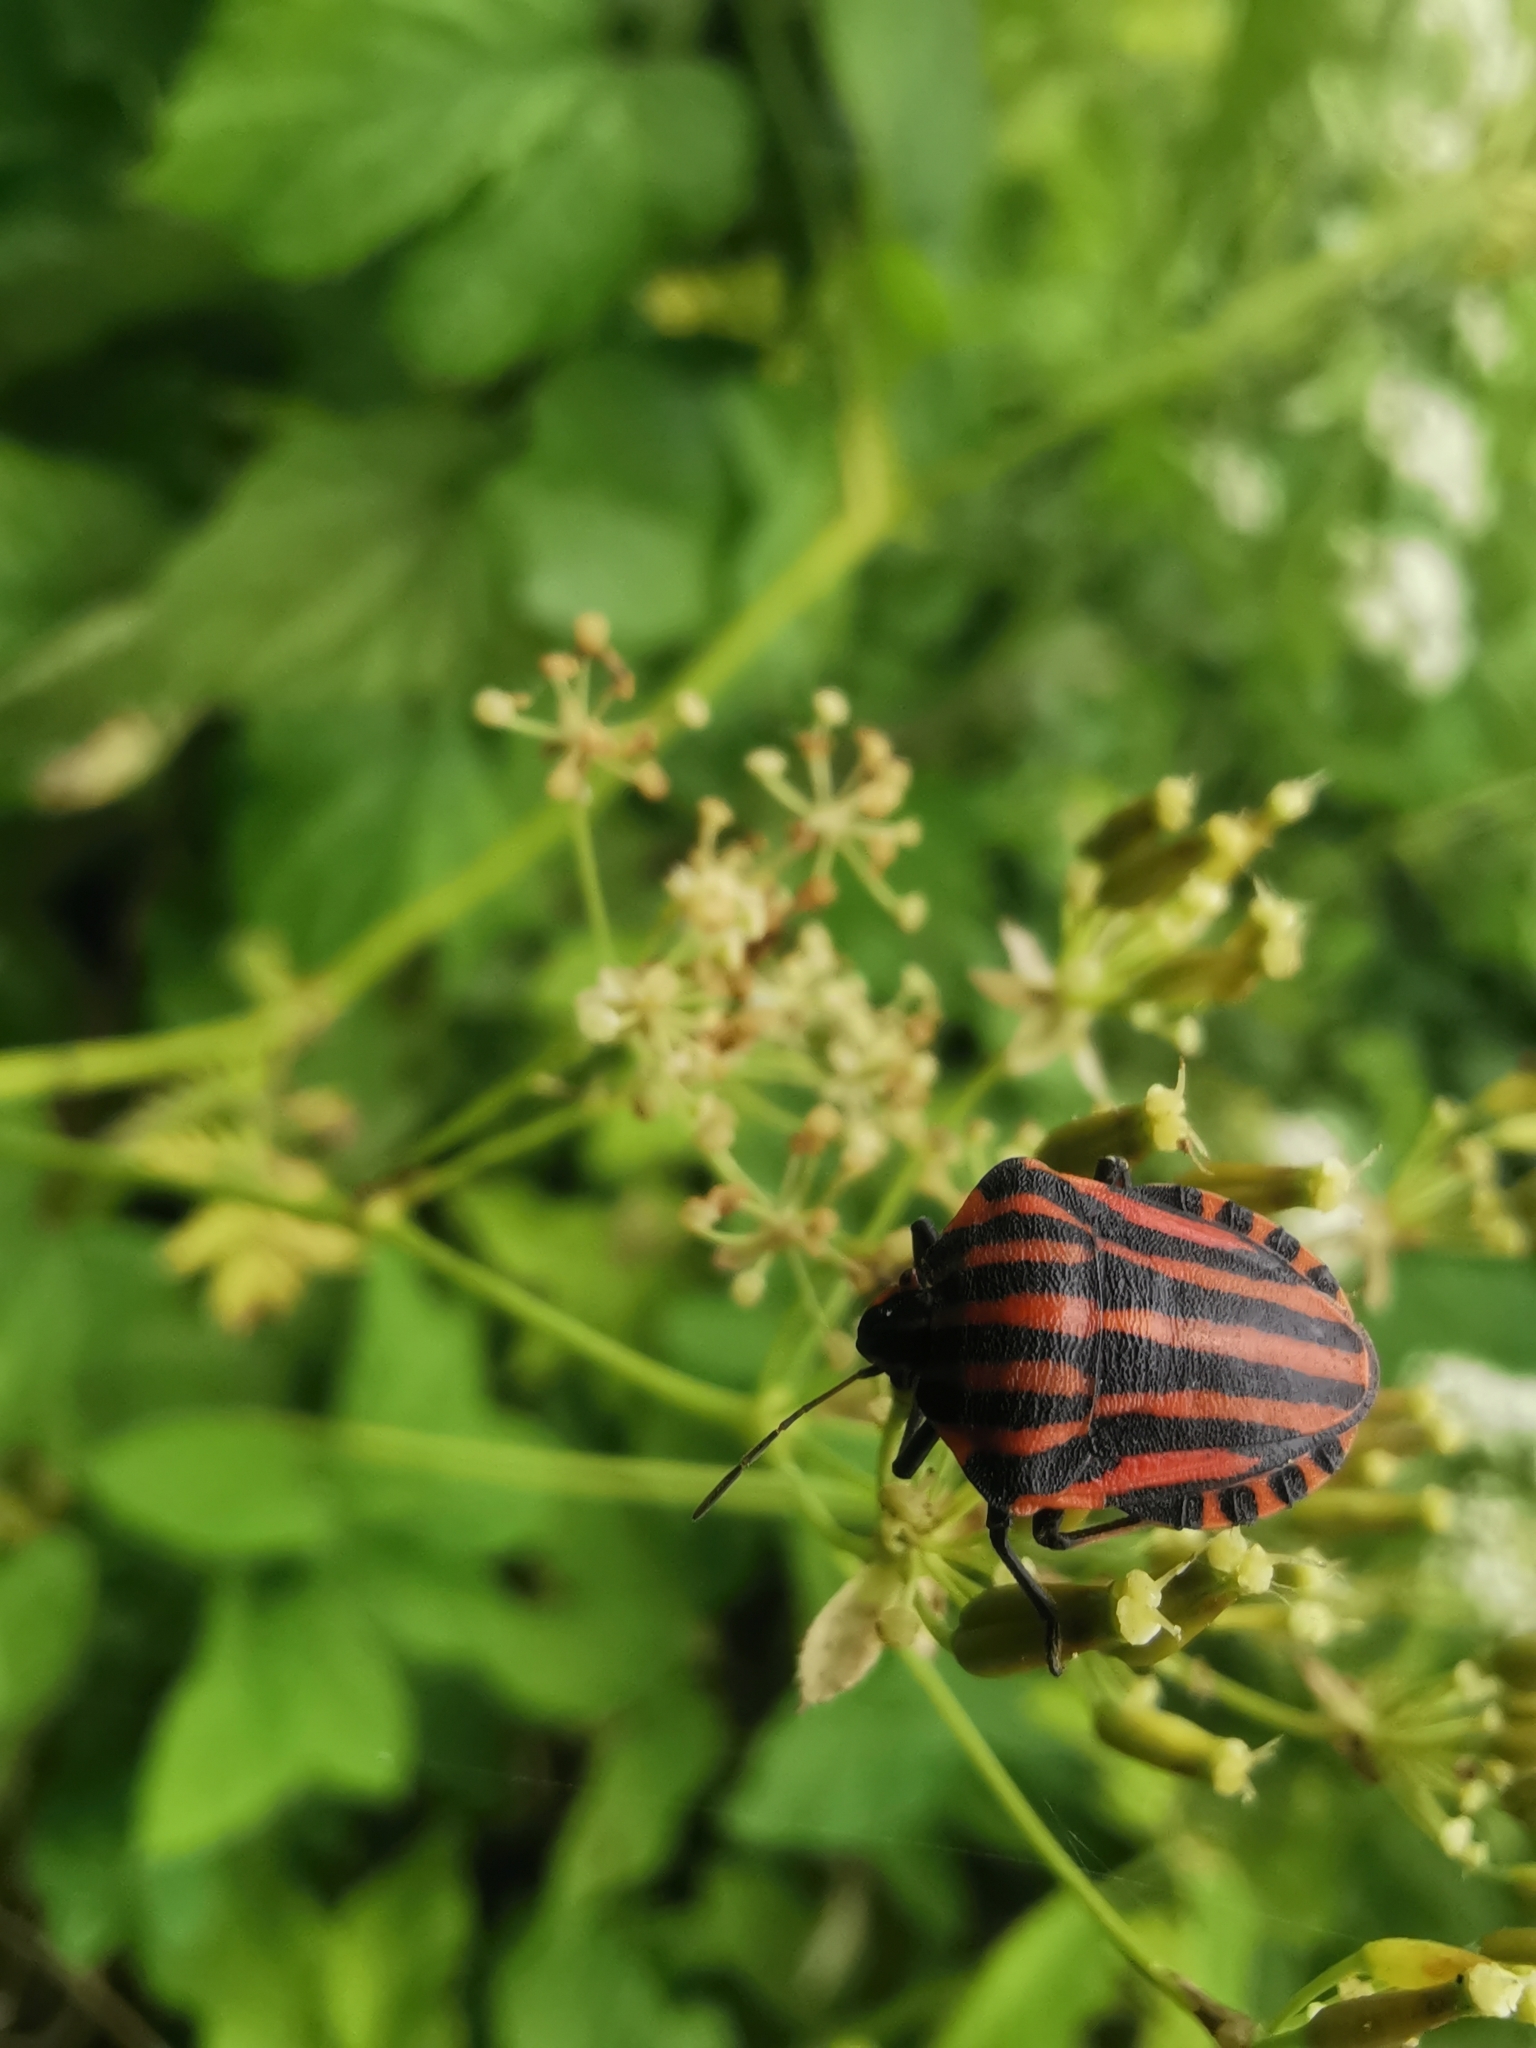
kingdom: Animalia
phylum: Arthropoda
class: Insecta
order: Hemiptera
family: Pentatomidae
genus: Graphosoma
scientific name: Graphosoma italicum
